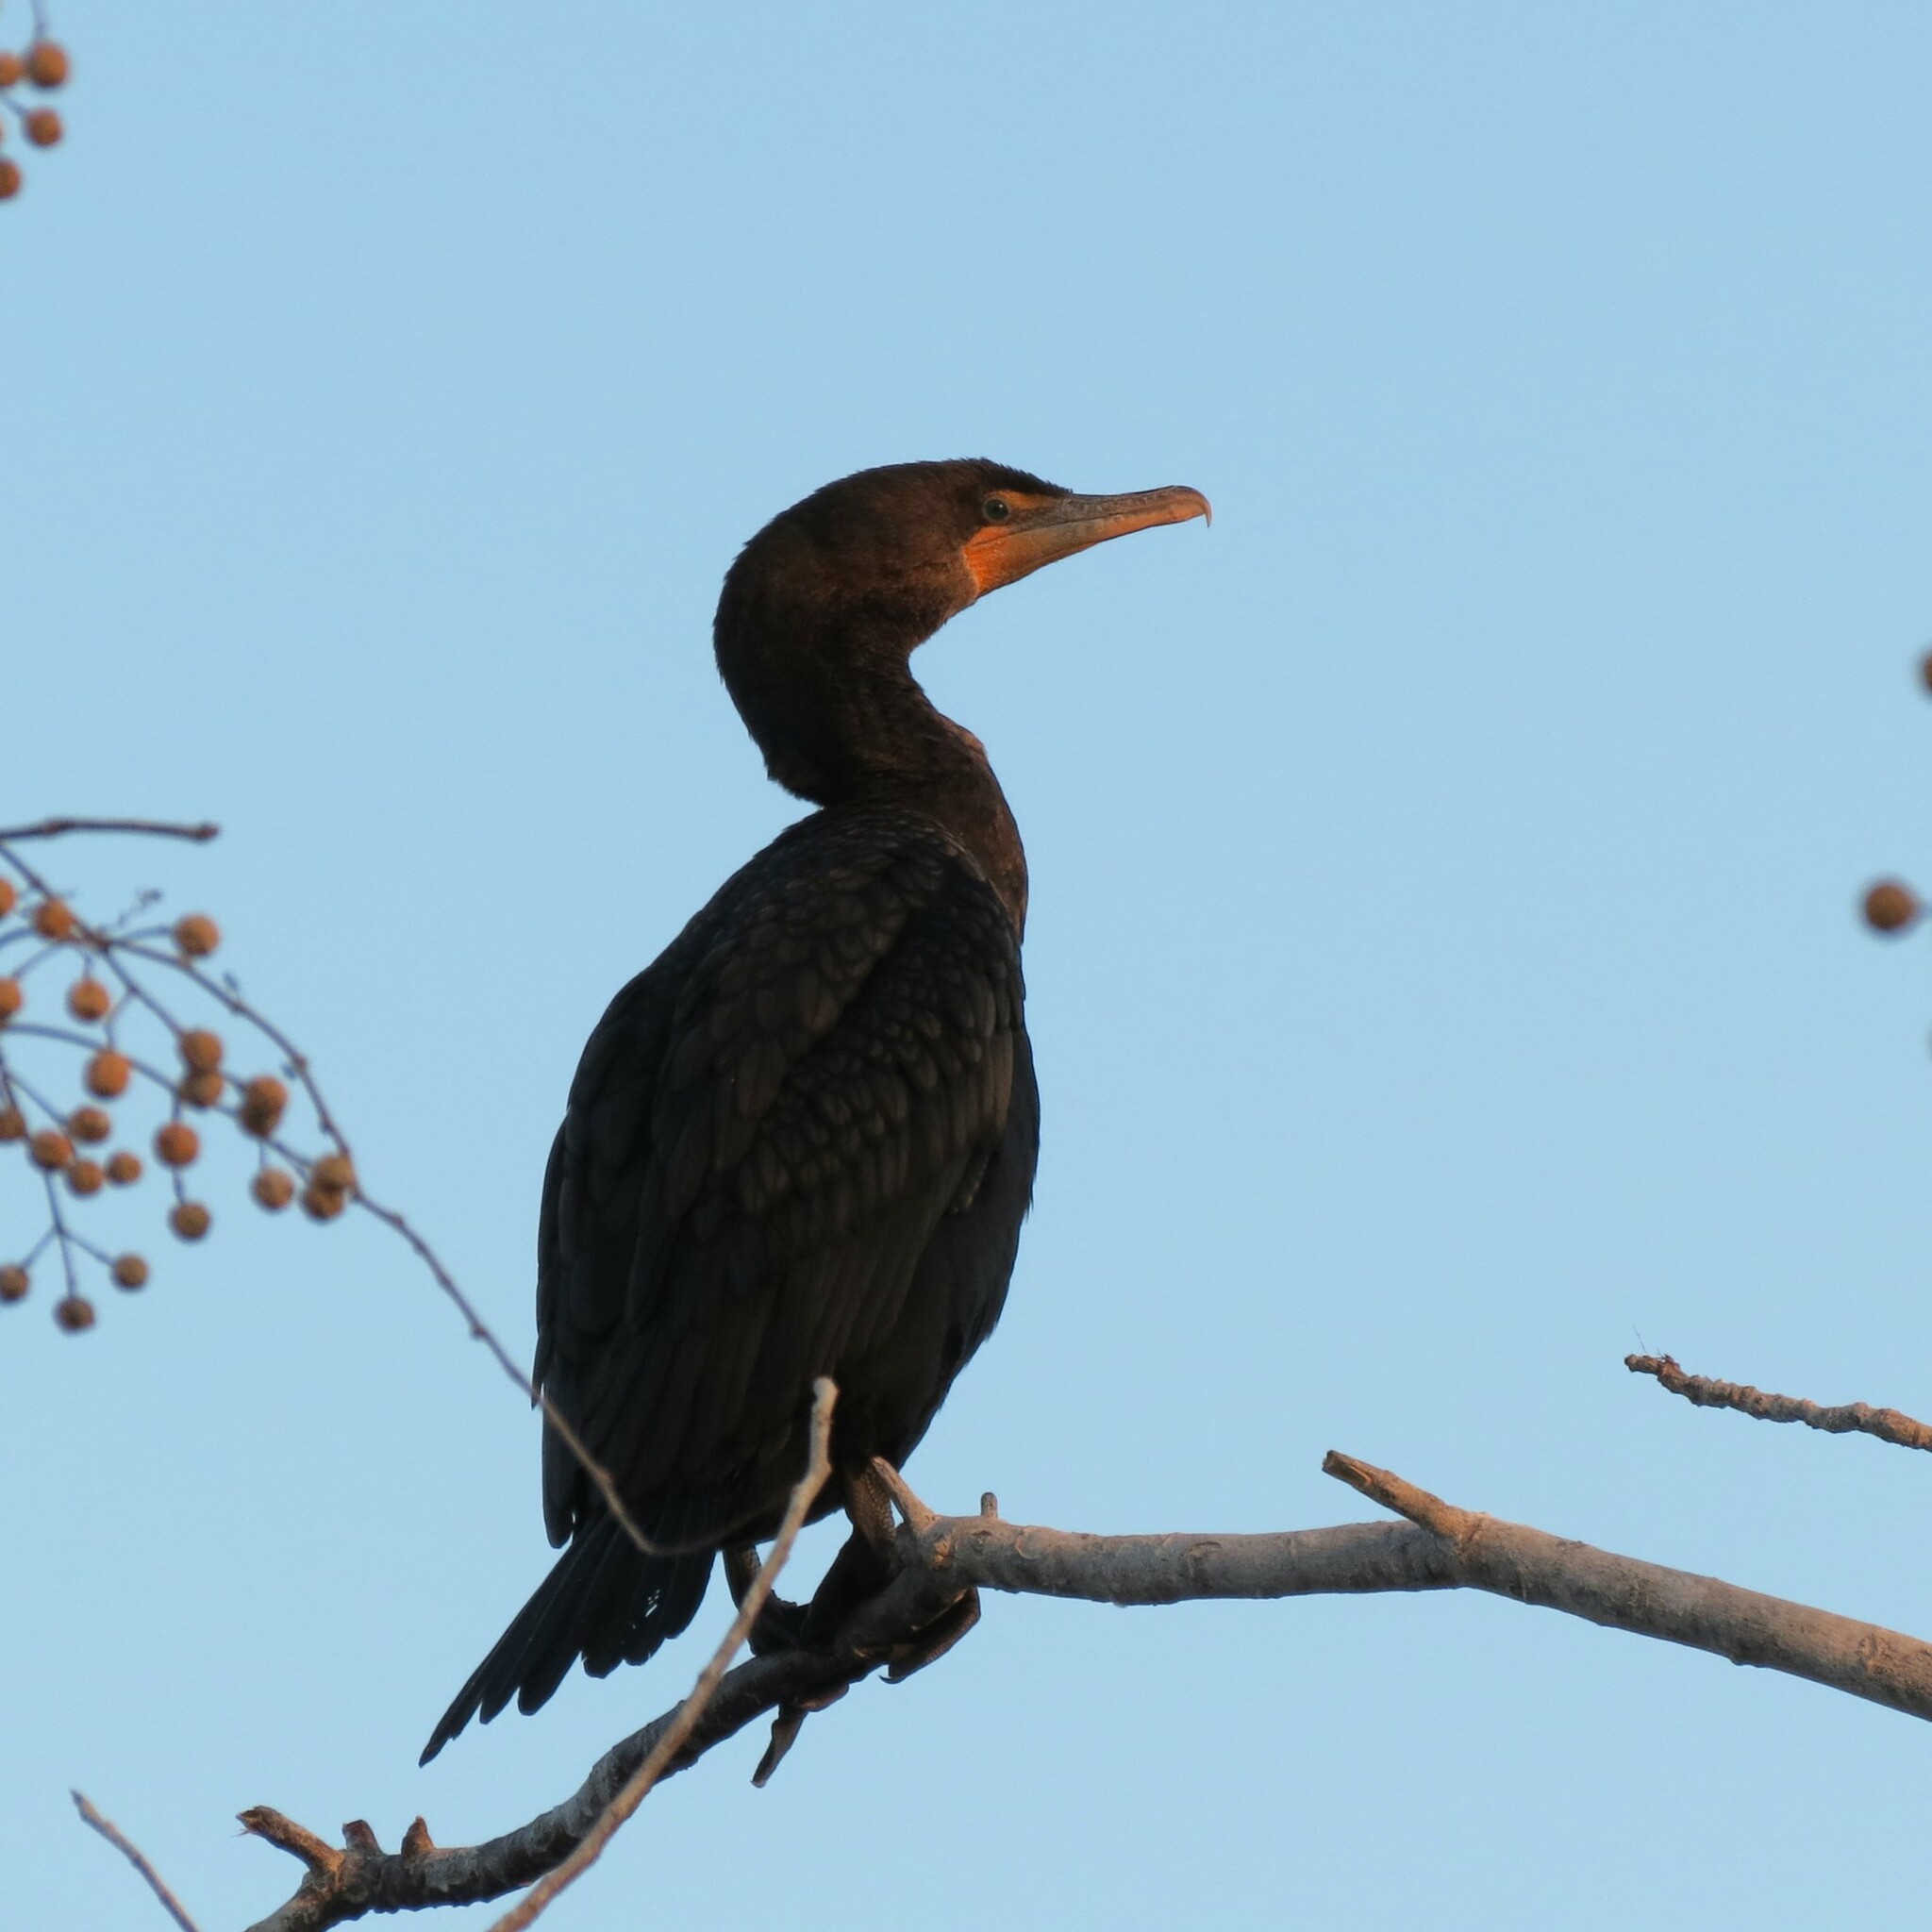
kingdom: Animalia
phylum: Chordata
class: Aves
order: Suliformes
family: Phalacrocoracidae
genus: Phalacrocorax
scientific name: Phalacrocorax auritus
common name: Double-crested cormorant
